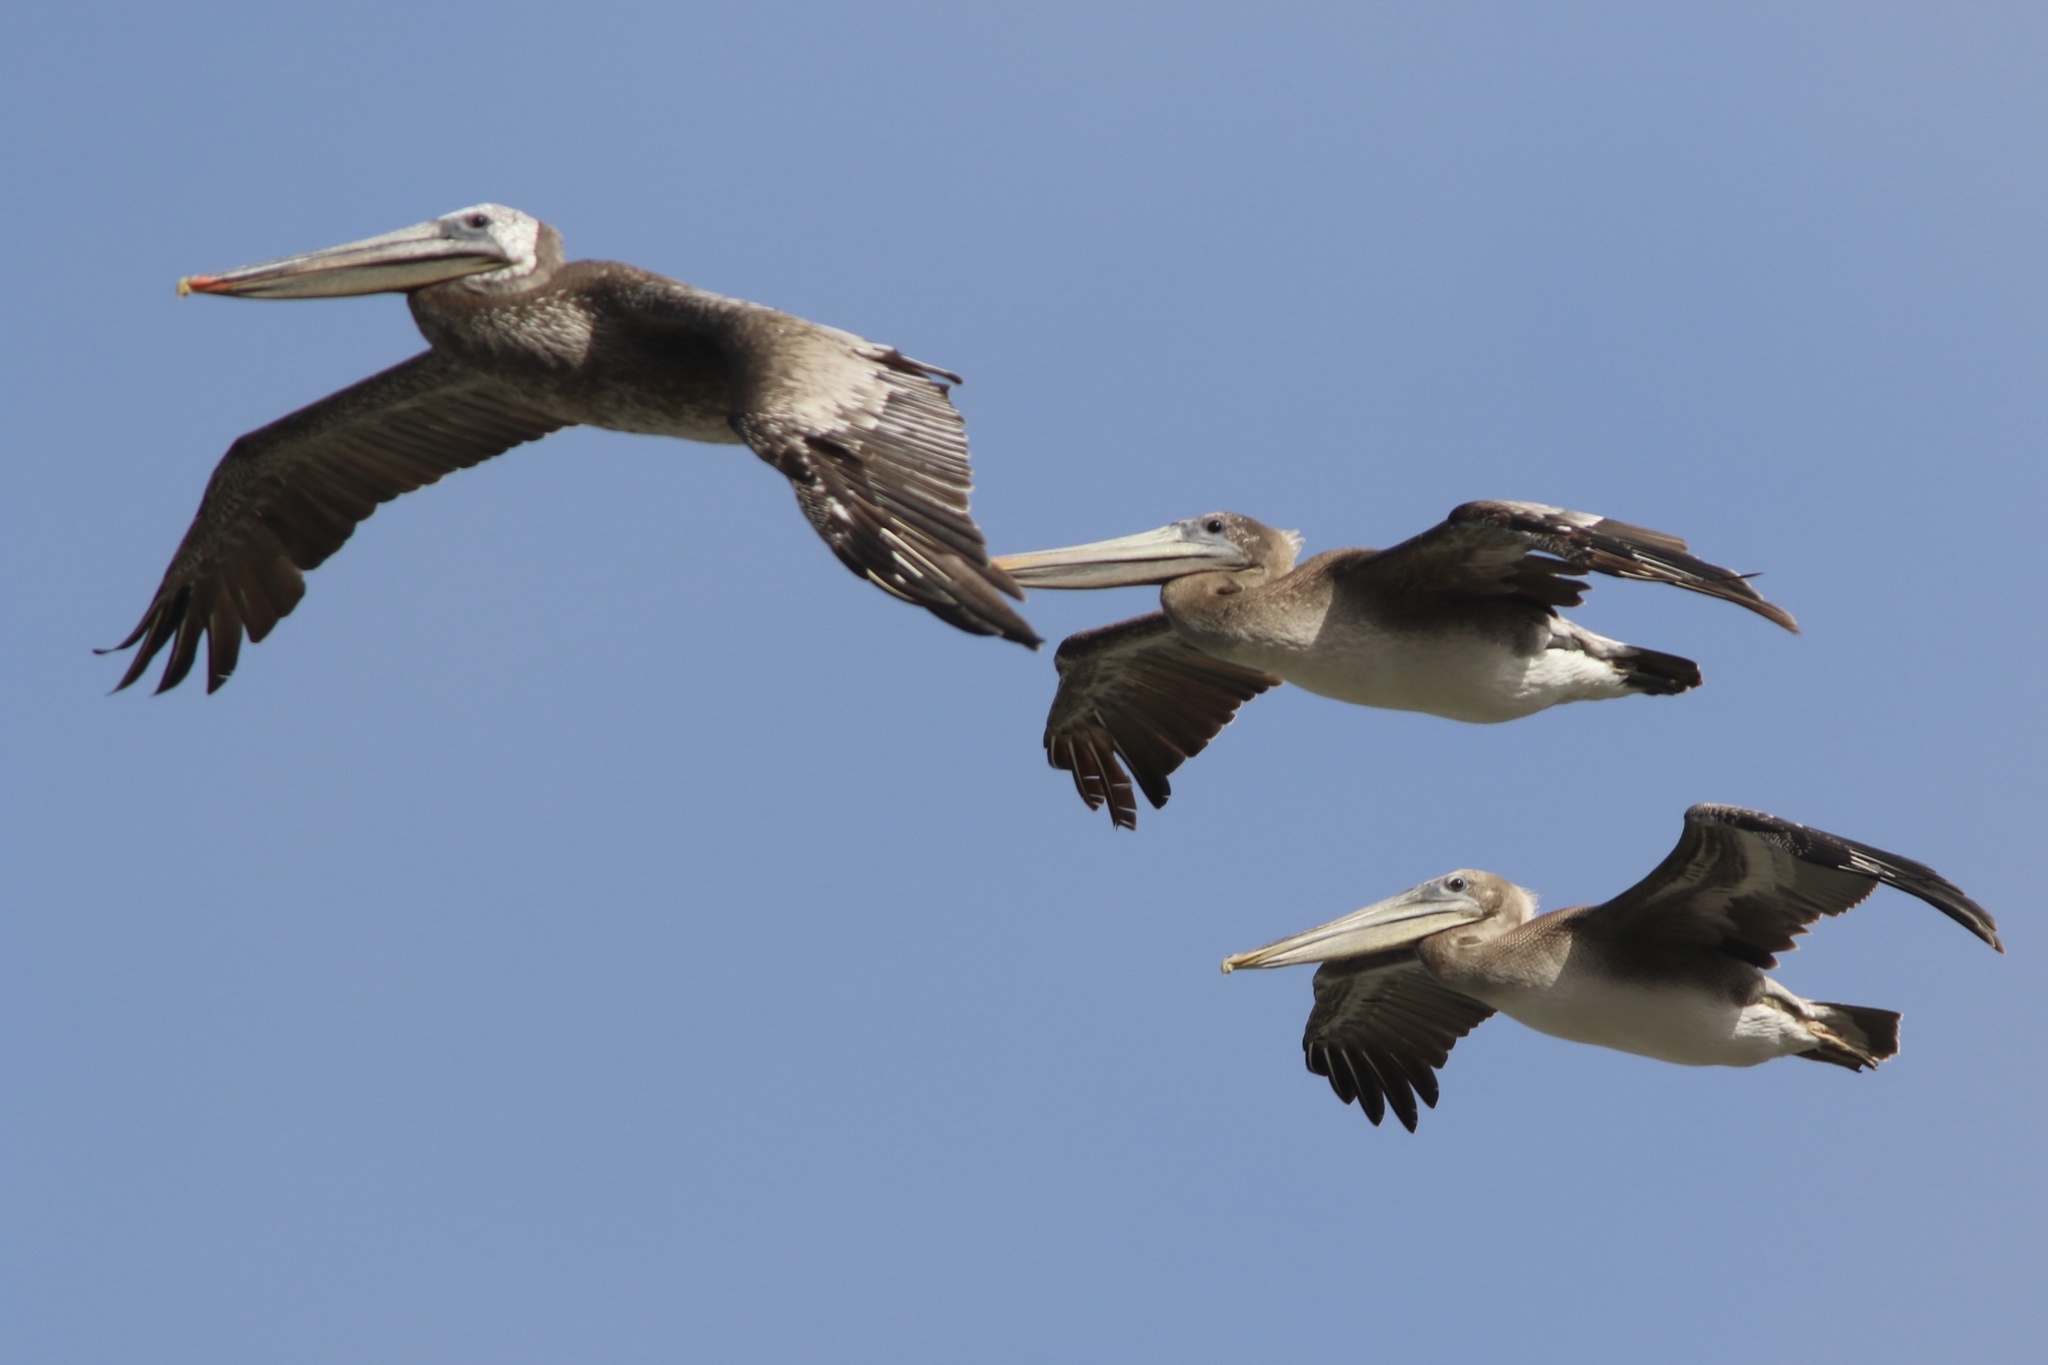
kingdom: Animalia
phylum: Chordata
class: Aves
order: Pelecaniformes
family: Pelecanidae
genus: Pelecanus
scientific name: Pelecanus occidentalis
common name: Brown pelican
